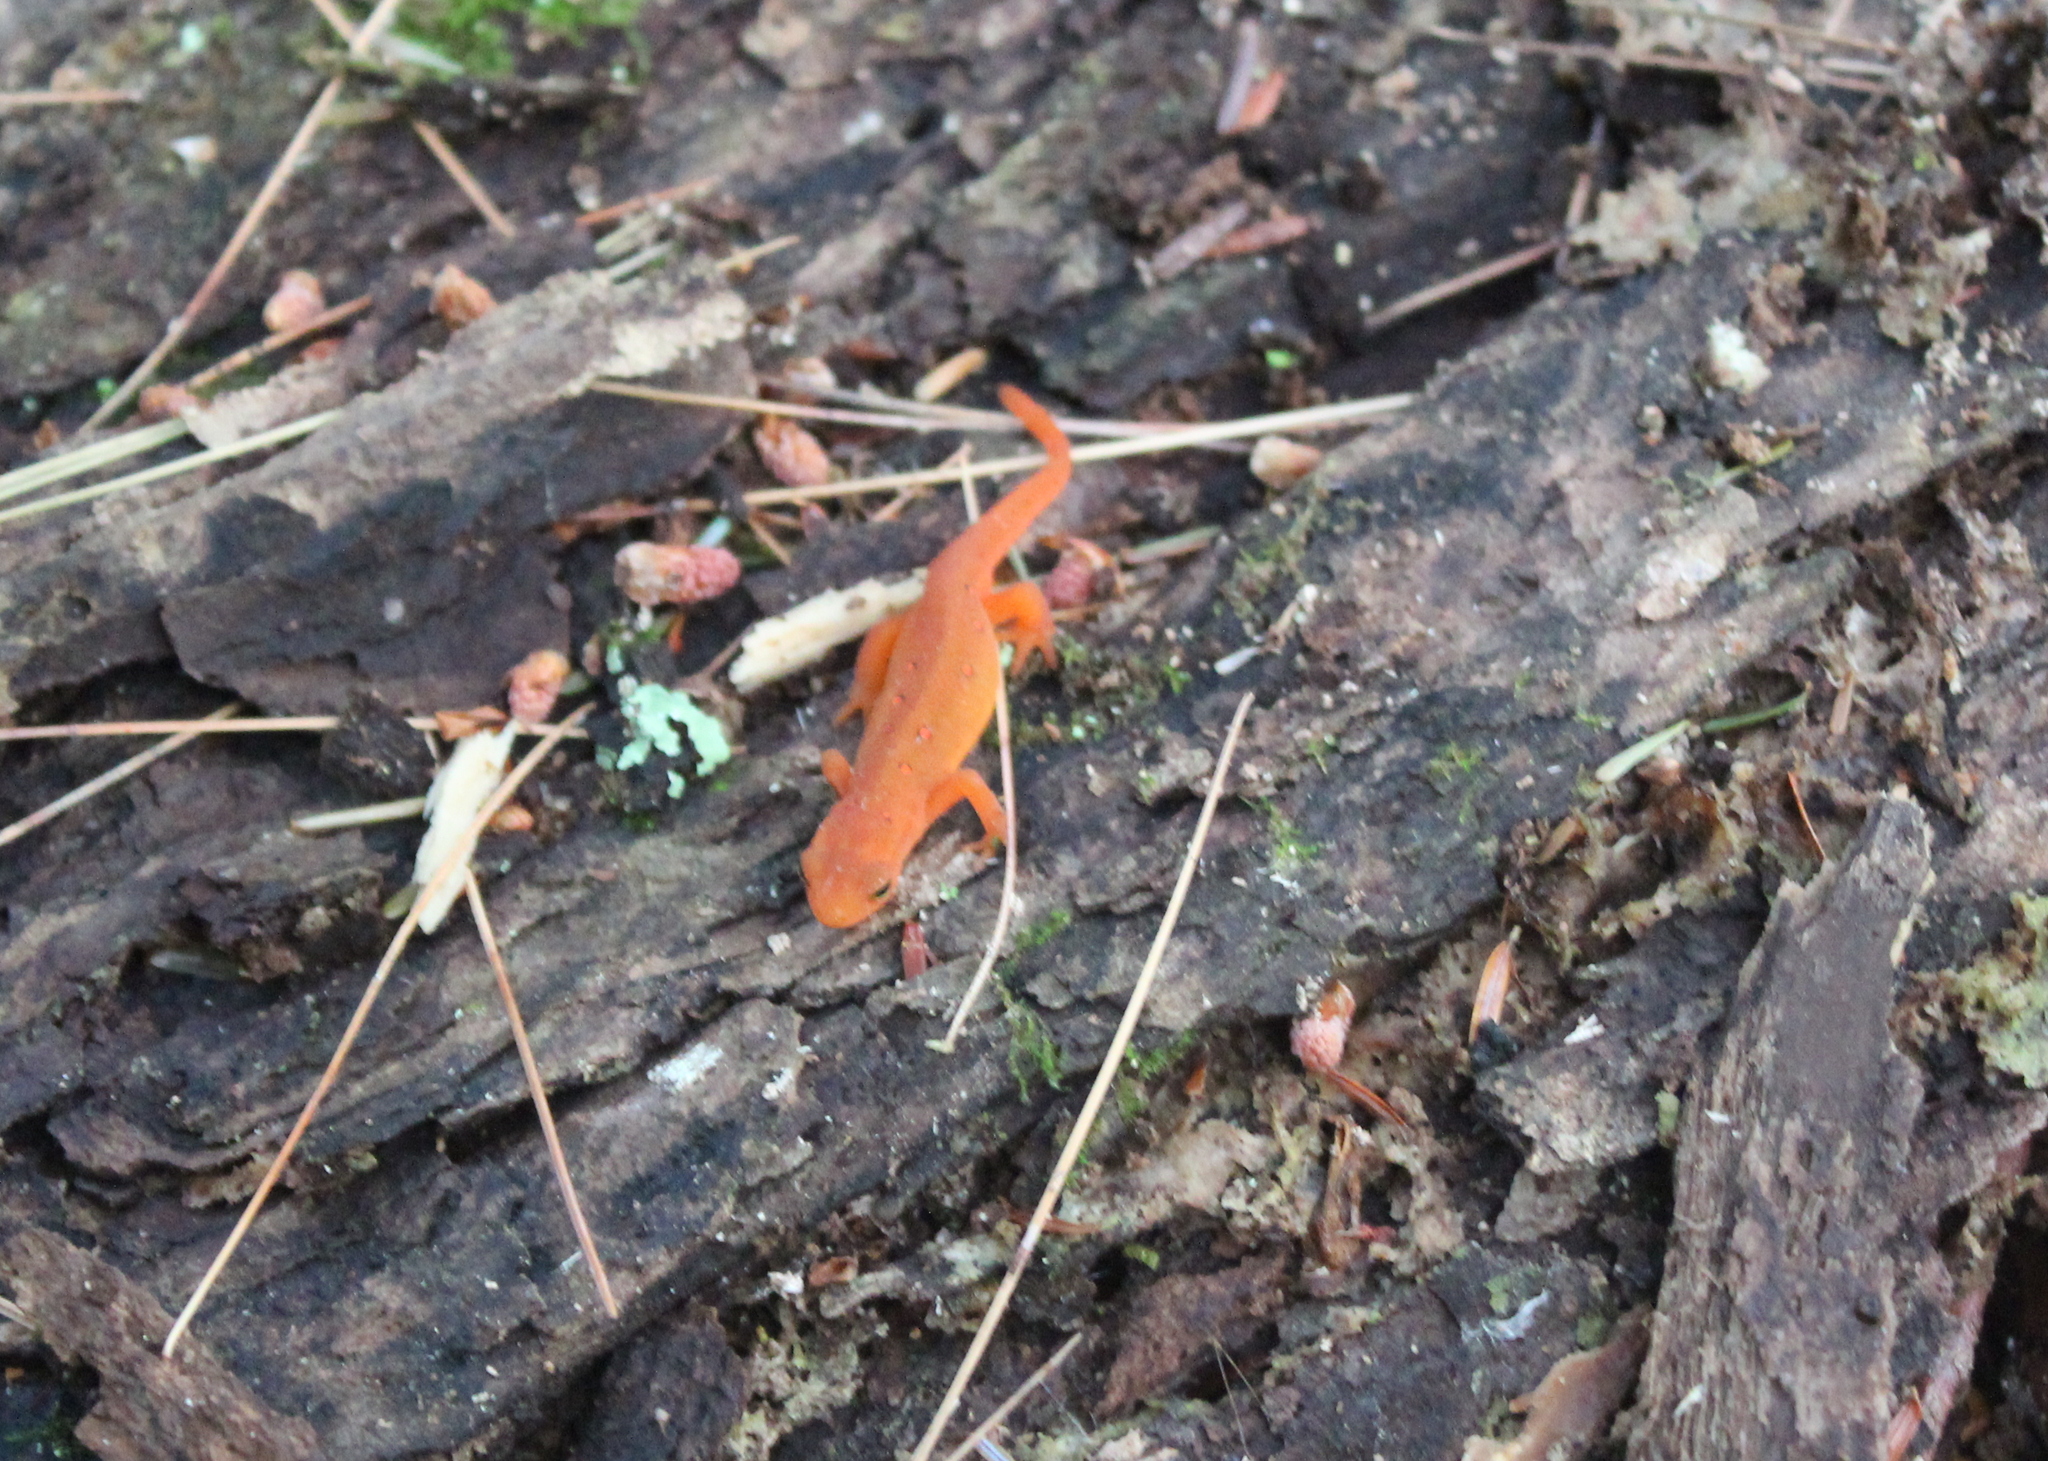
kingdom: Animalia
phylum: Chordata
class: Amphibia
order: Caudata
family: Salamandridae
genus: Notophthalmus
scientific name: Notophthalmus viridescens
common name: Eastern newt
